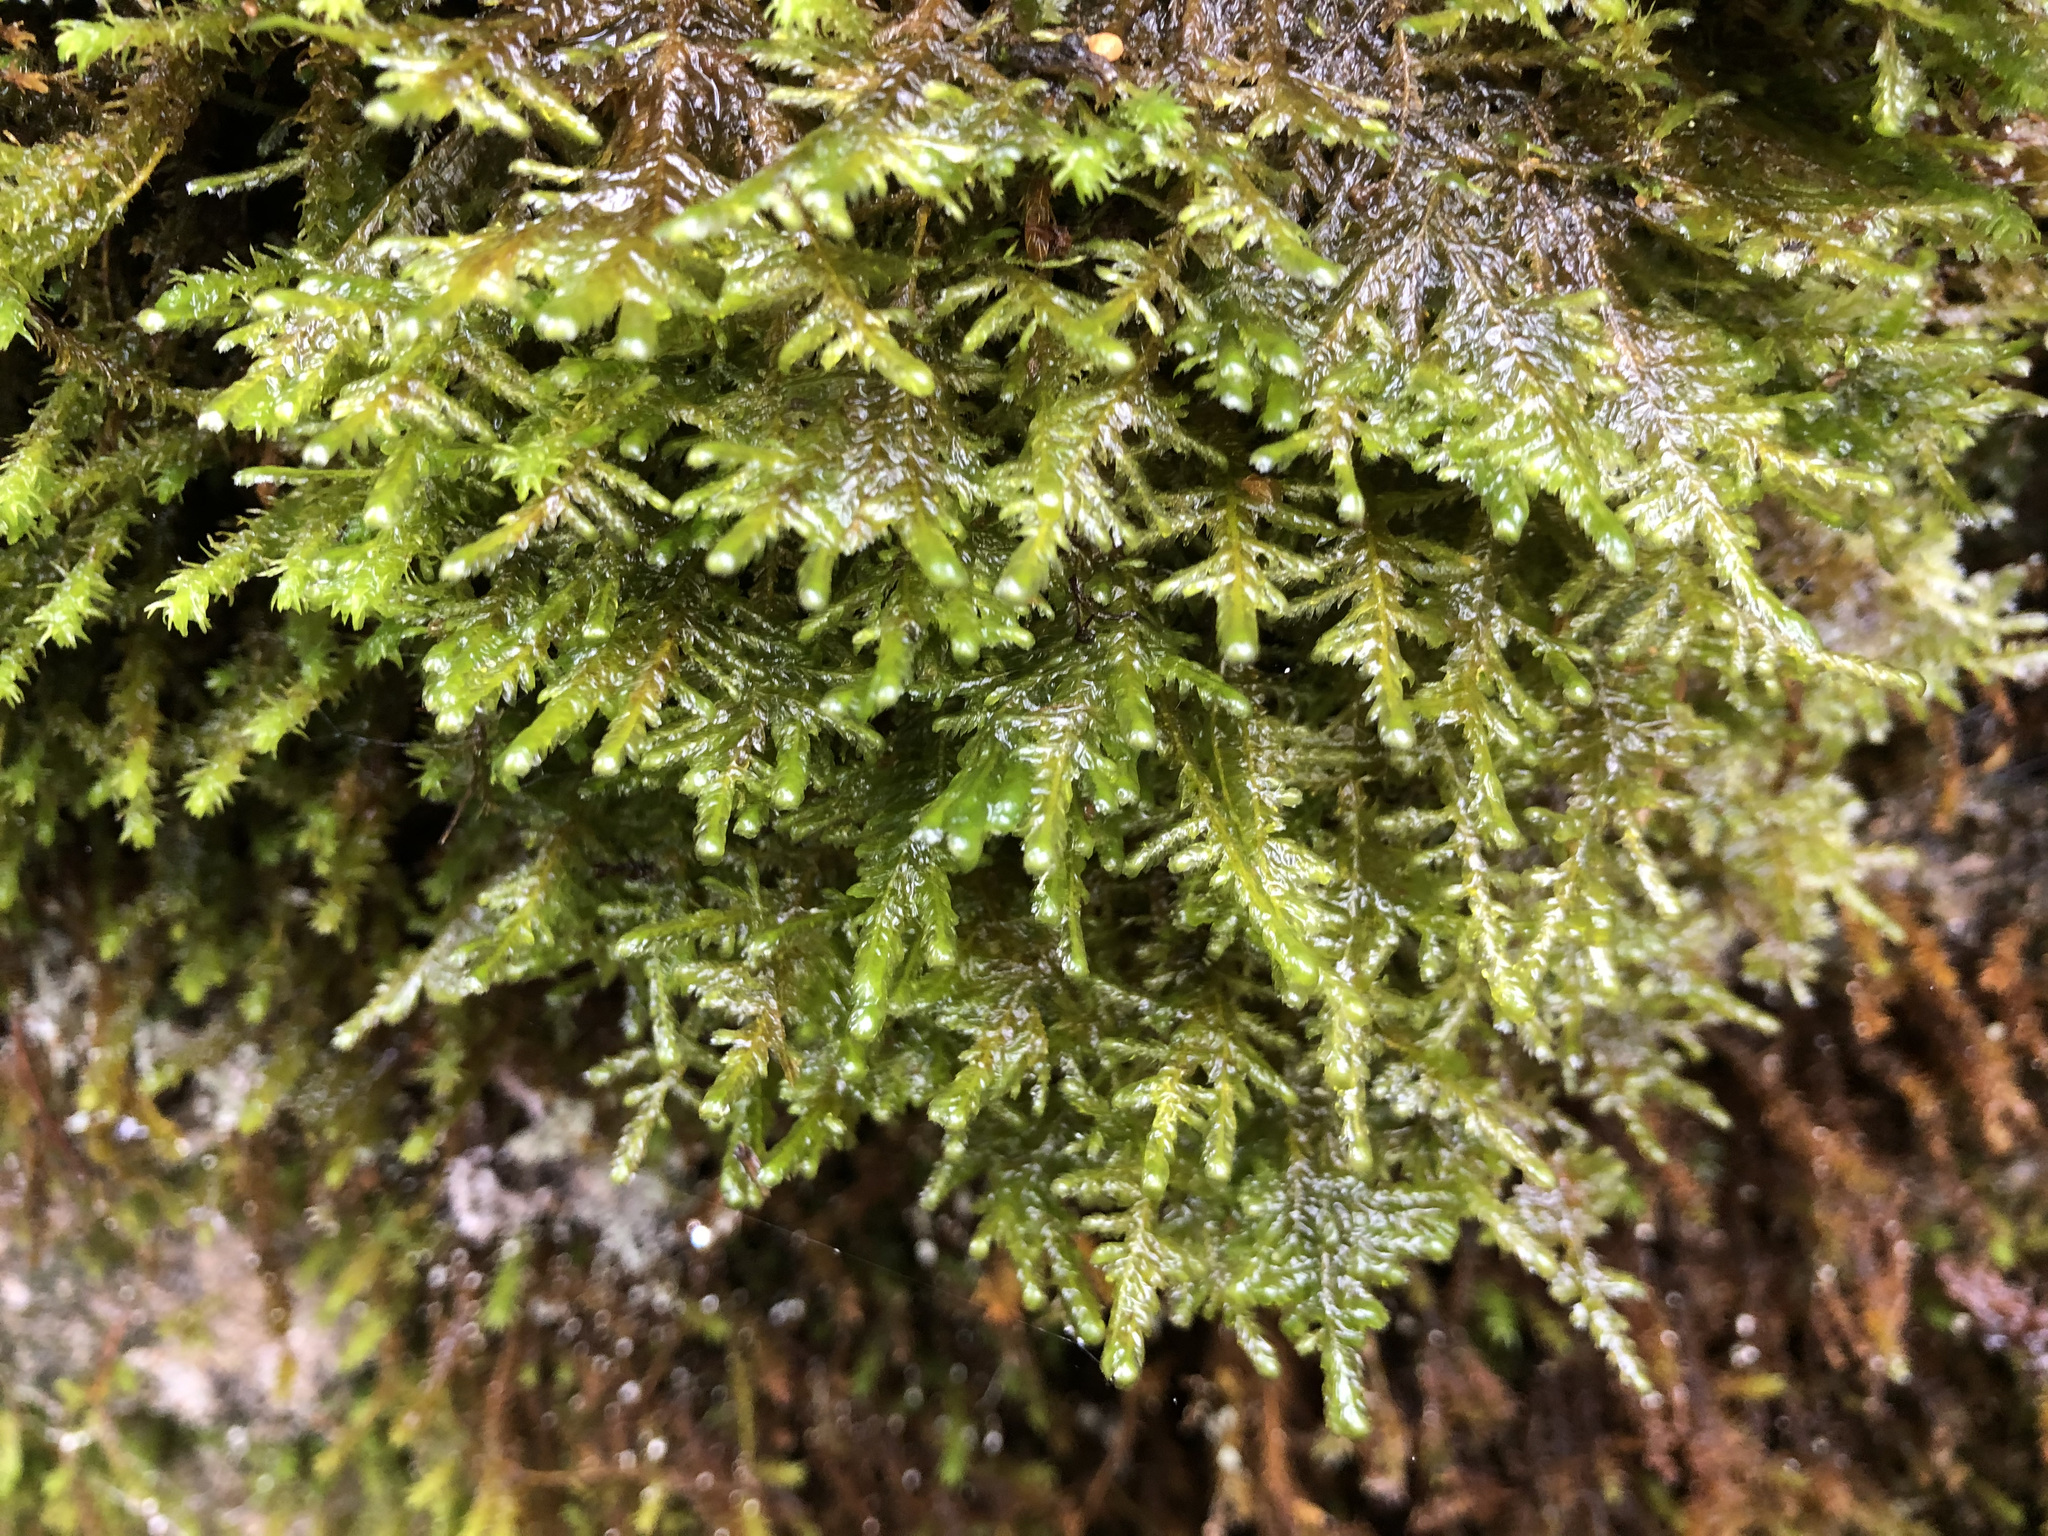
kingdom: Plantae
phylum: Bryophyta
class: Bryopsida
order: Hypnales
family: Neckeraceae
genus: Alleniella
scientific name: Alleniella complanata
